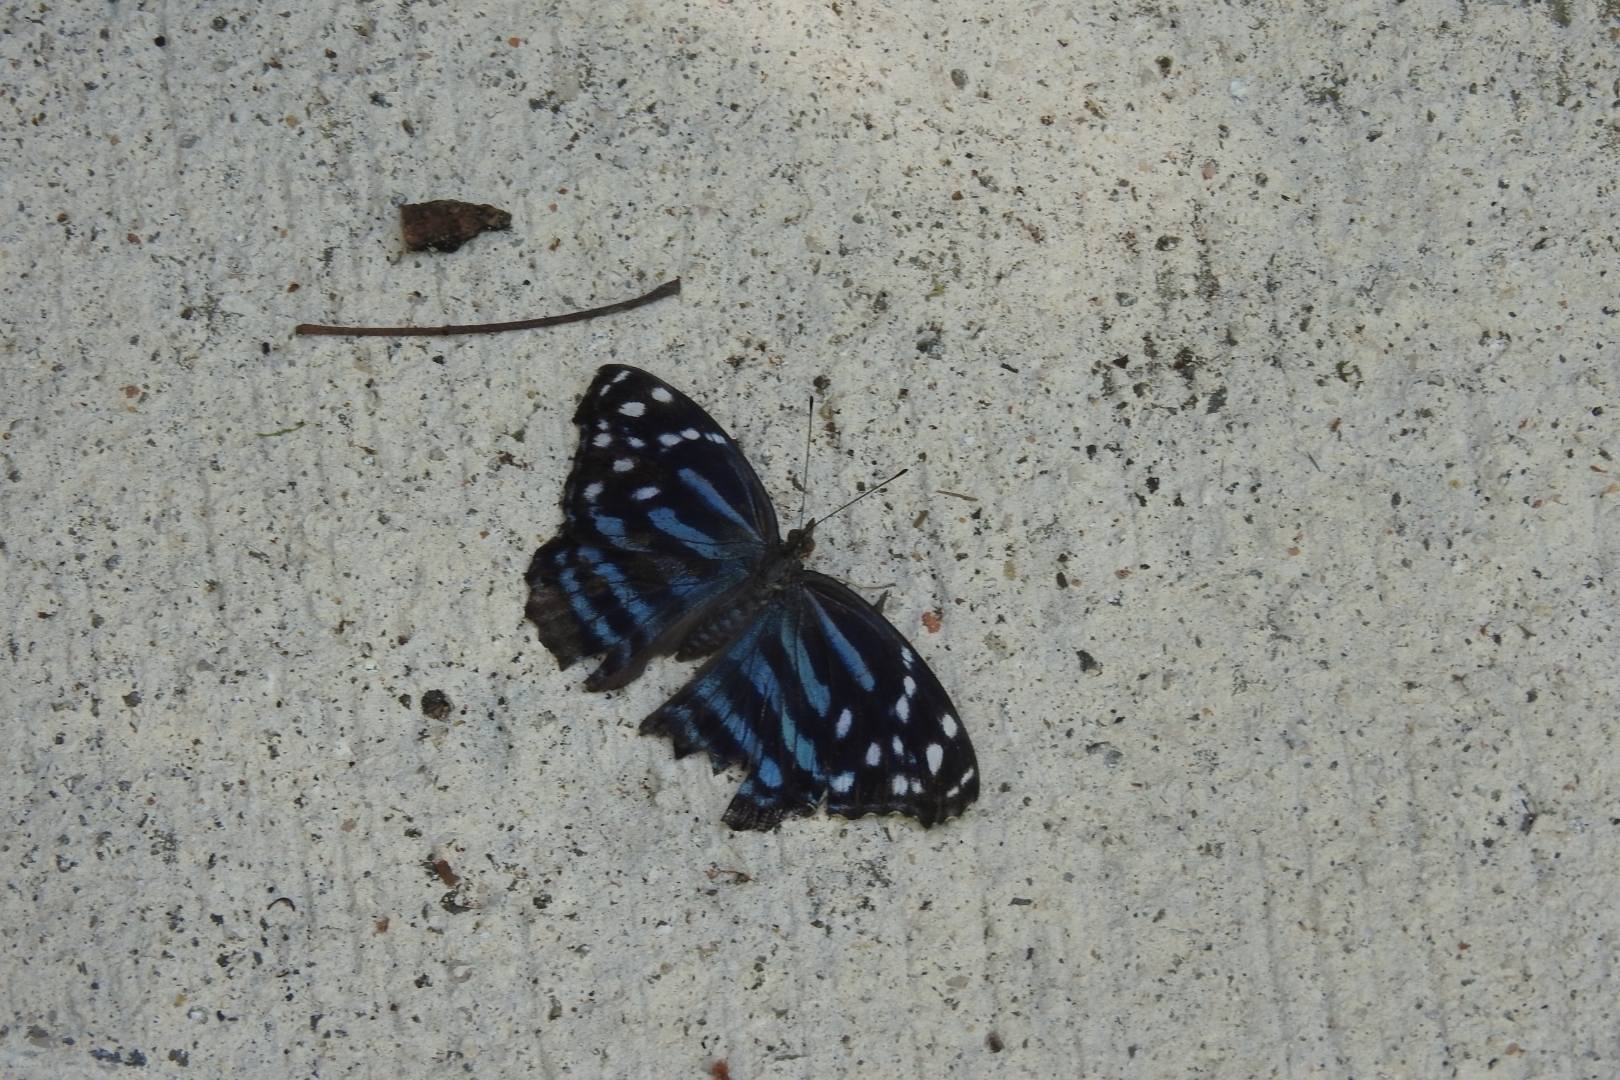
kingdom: Animalia
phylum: Arthropoda
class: Insecta
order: Lepidoptera
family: Nymphalidae
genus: Myscelia
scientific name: Myscelia ethusa
